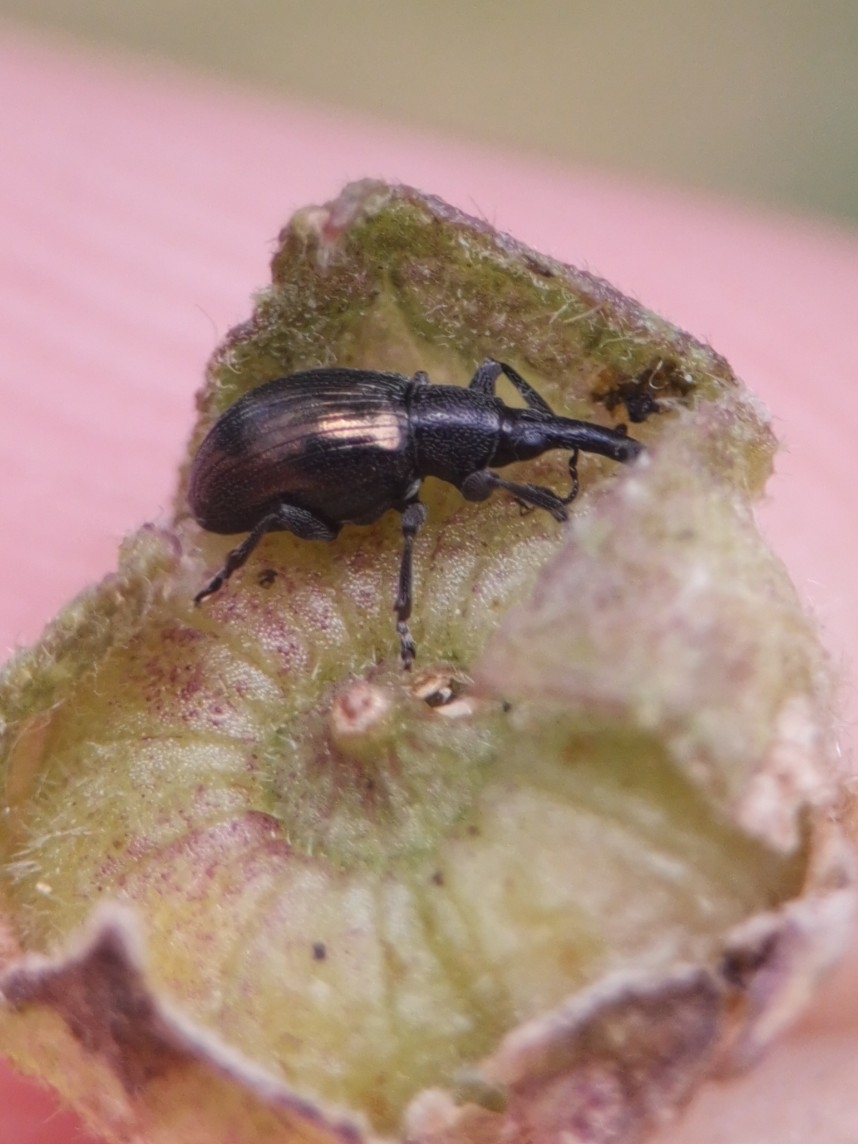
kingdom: Animalia
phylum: Arthropoda
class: Insecta
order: Coleoptera
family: Curculionidae
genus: Sphenomorpha
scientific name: Sphenomorpha aenea
